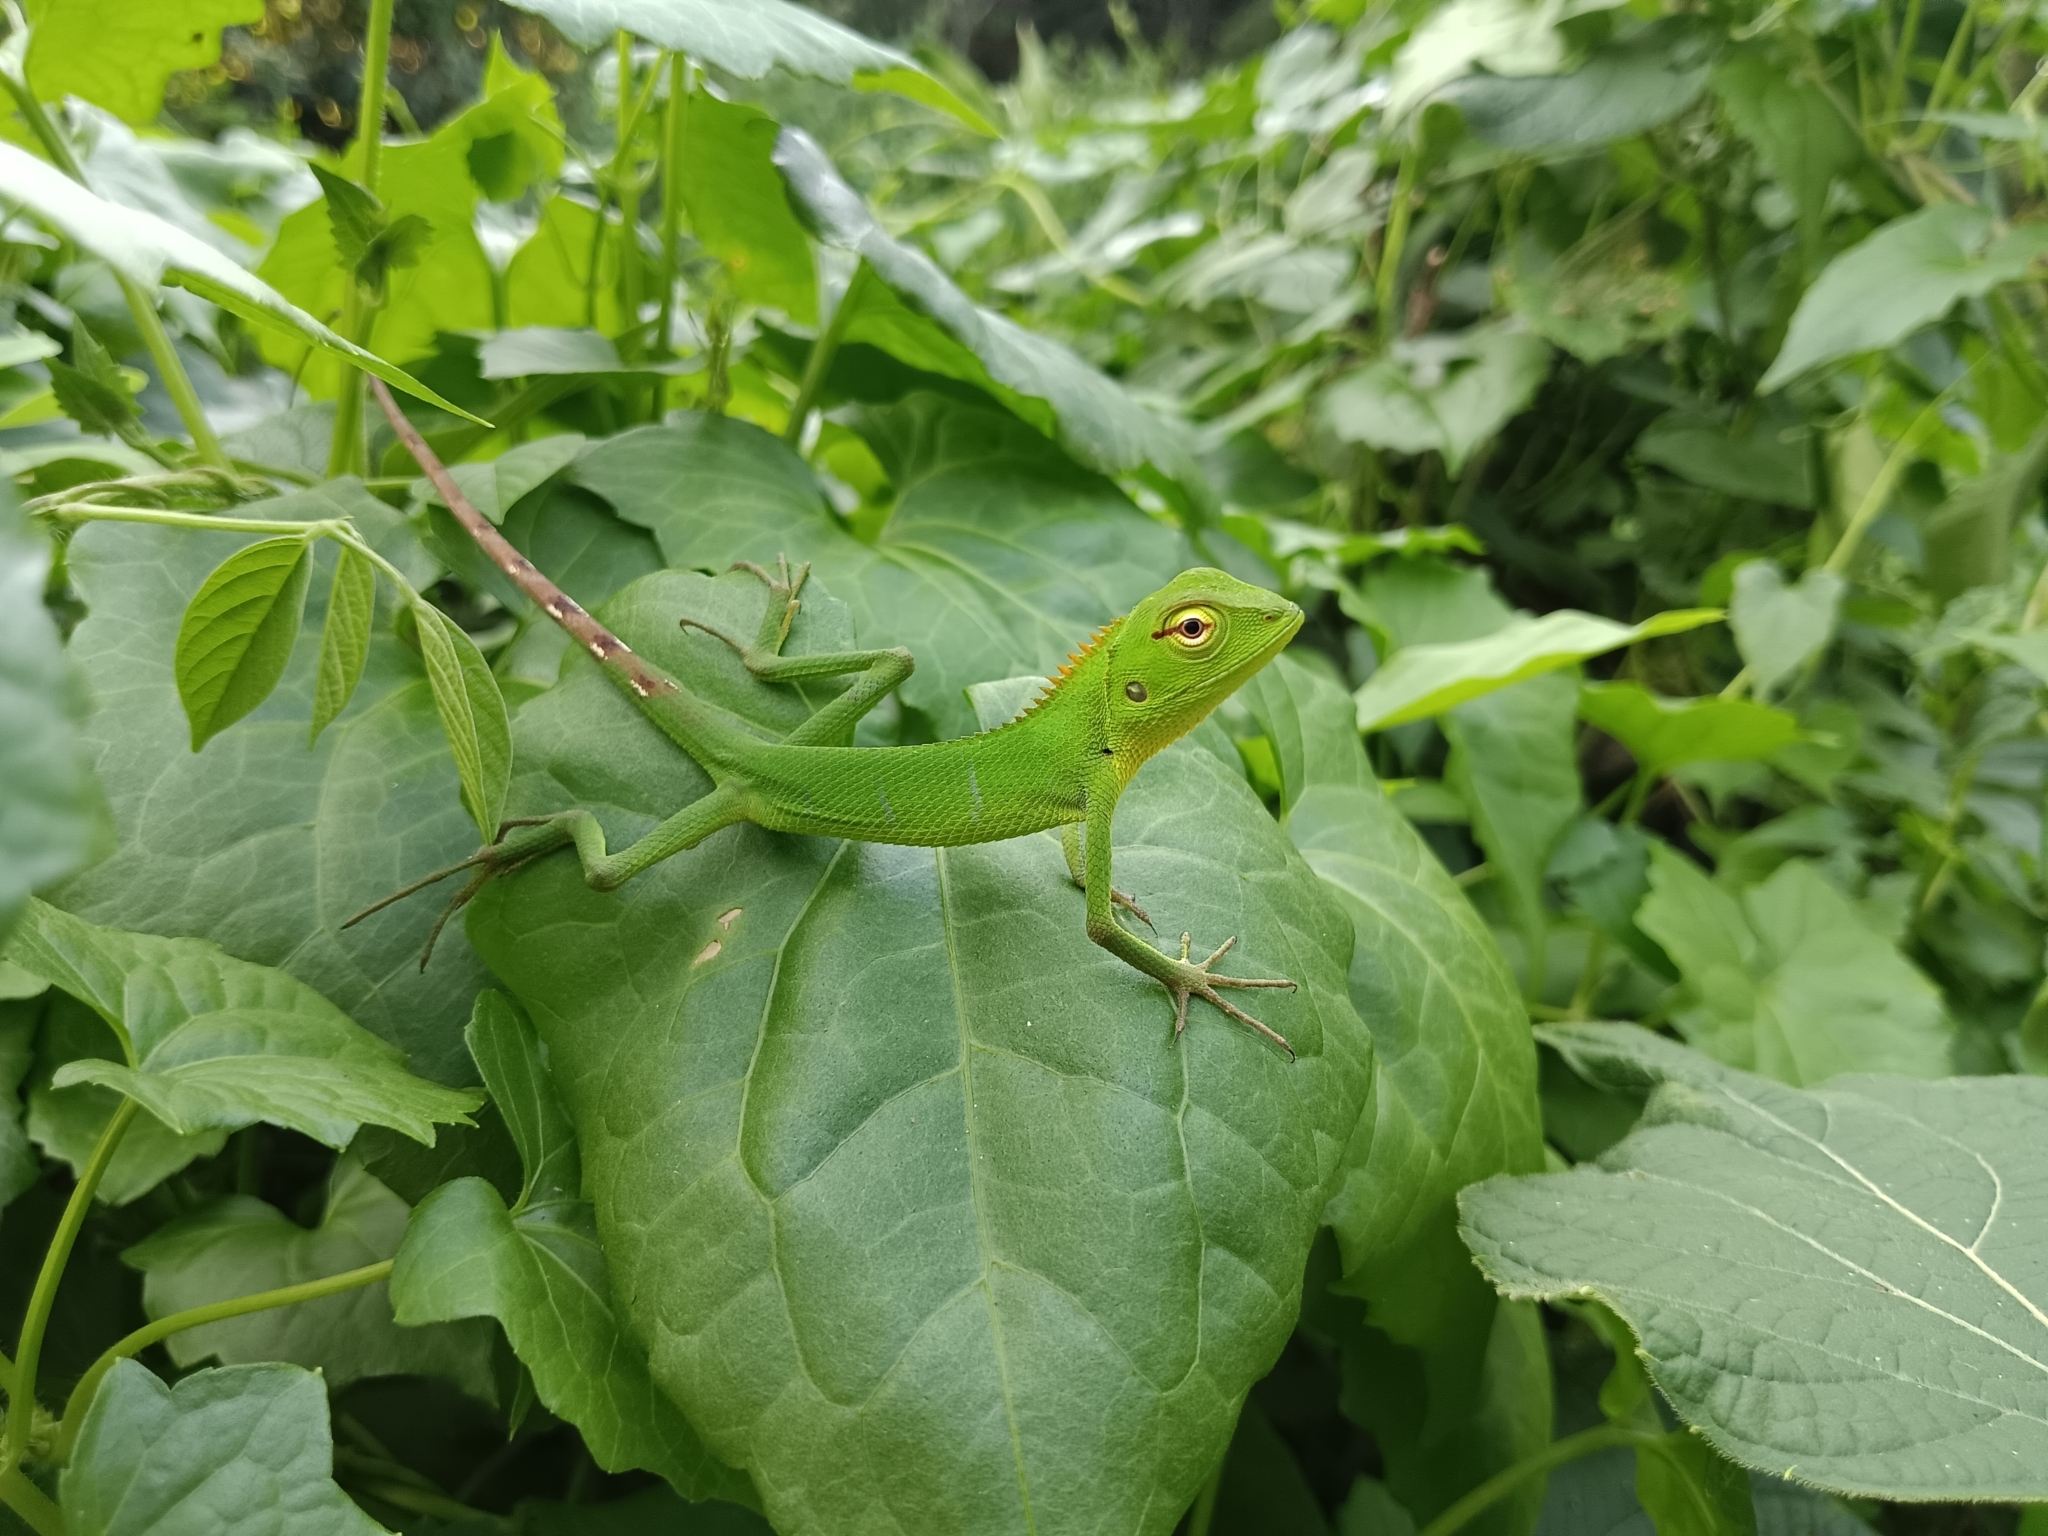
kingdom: Animalia
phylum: Chordata
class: Squamata
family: Agamidae
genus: Calotes
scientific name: Calotes calotes
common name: Common green forest lizard
